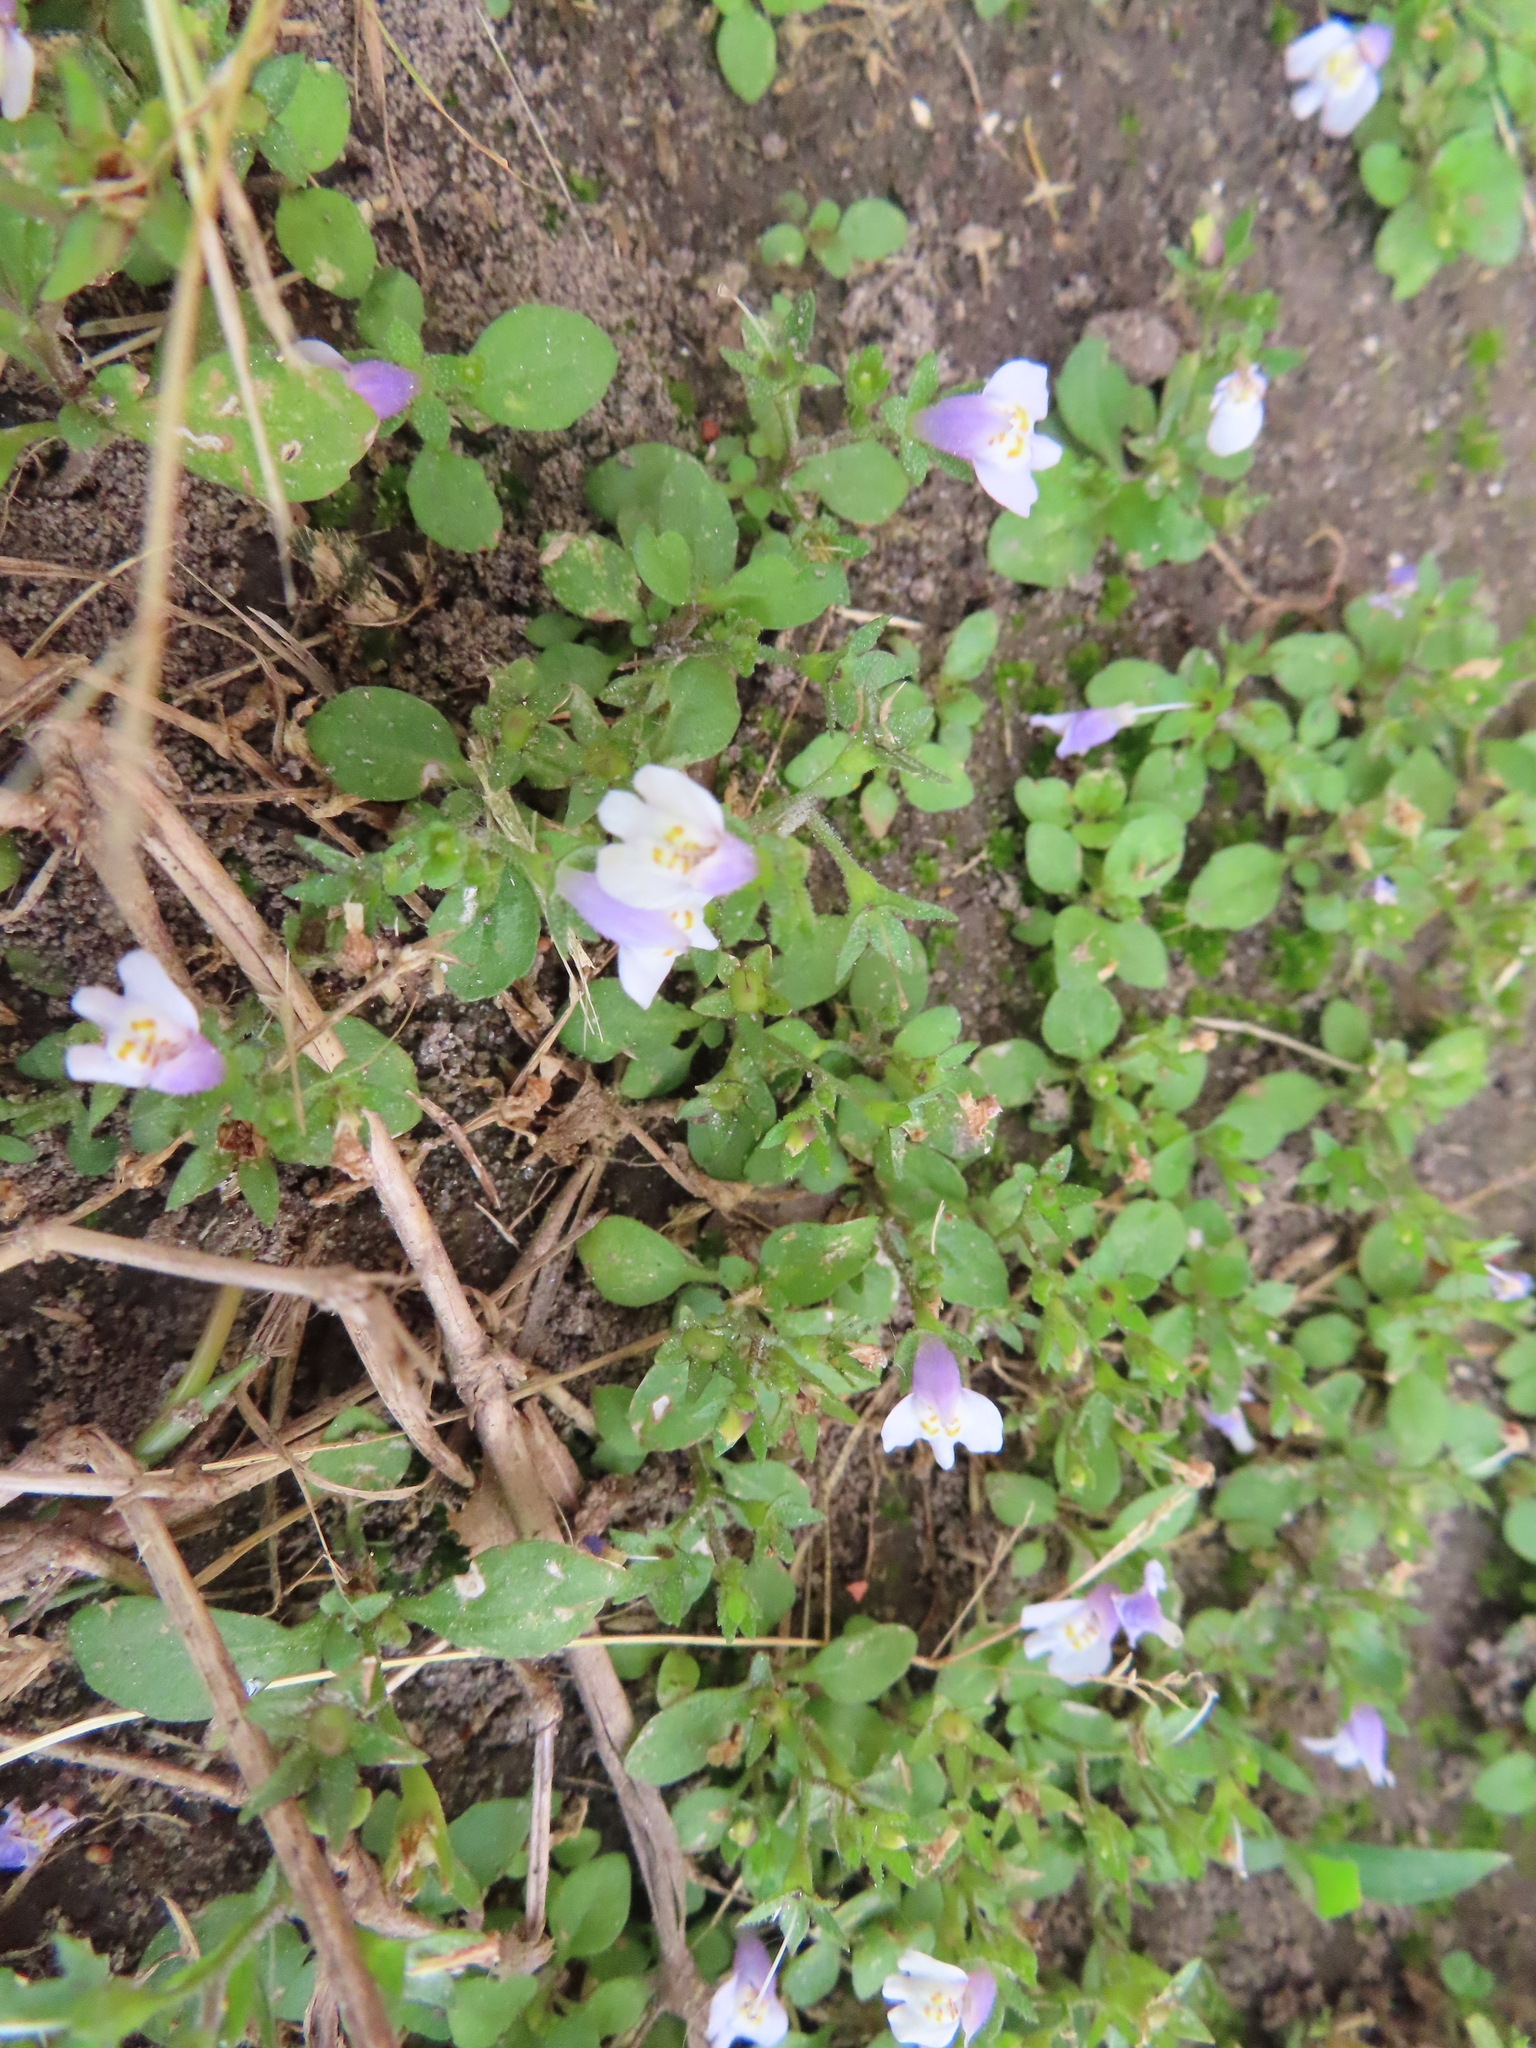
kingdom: Plantae
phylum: Tracheophyta
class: Magnoliopsida
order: Lamiales
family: Mazaceae
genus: Mazus
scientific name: Mazus pumilus
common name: Japanese mazus
